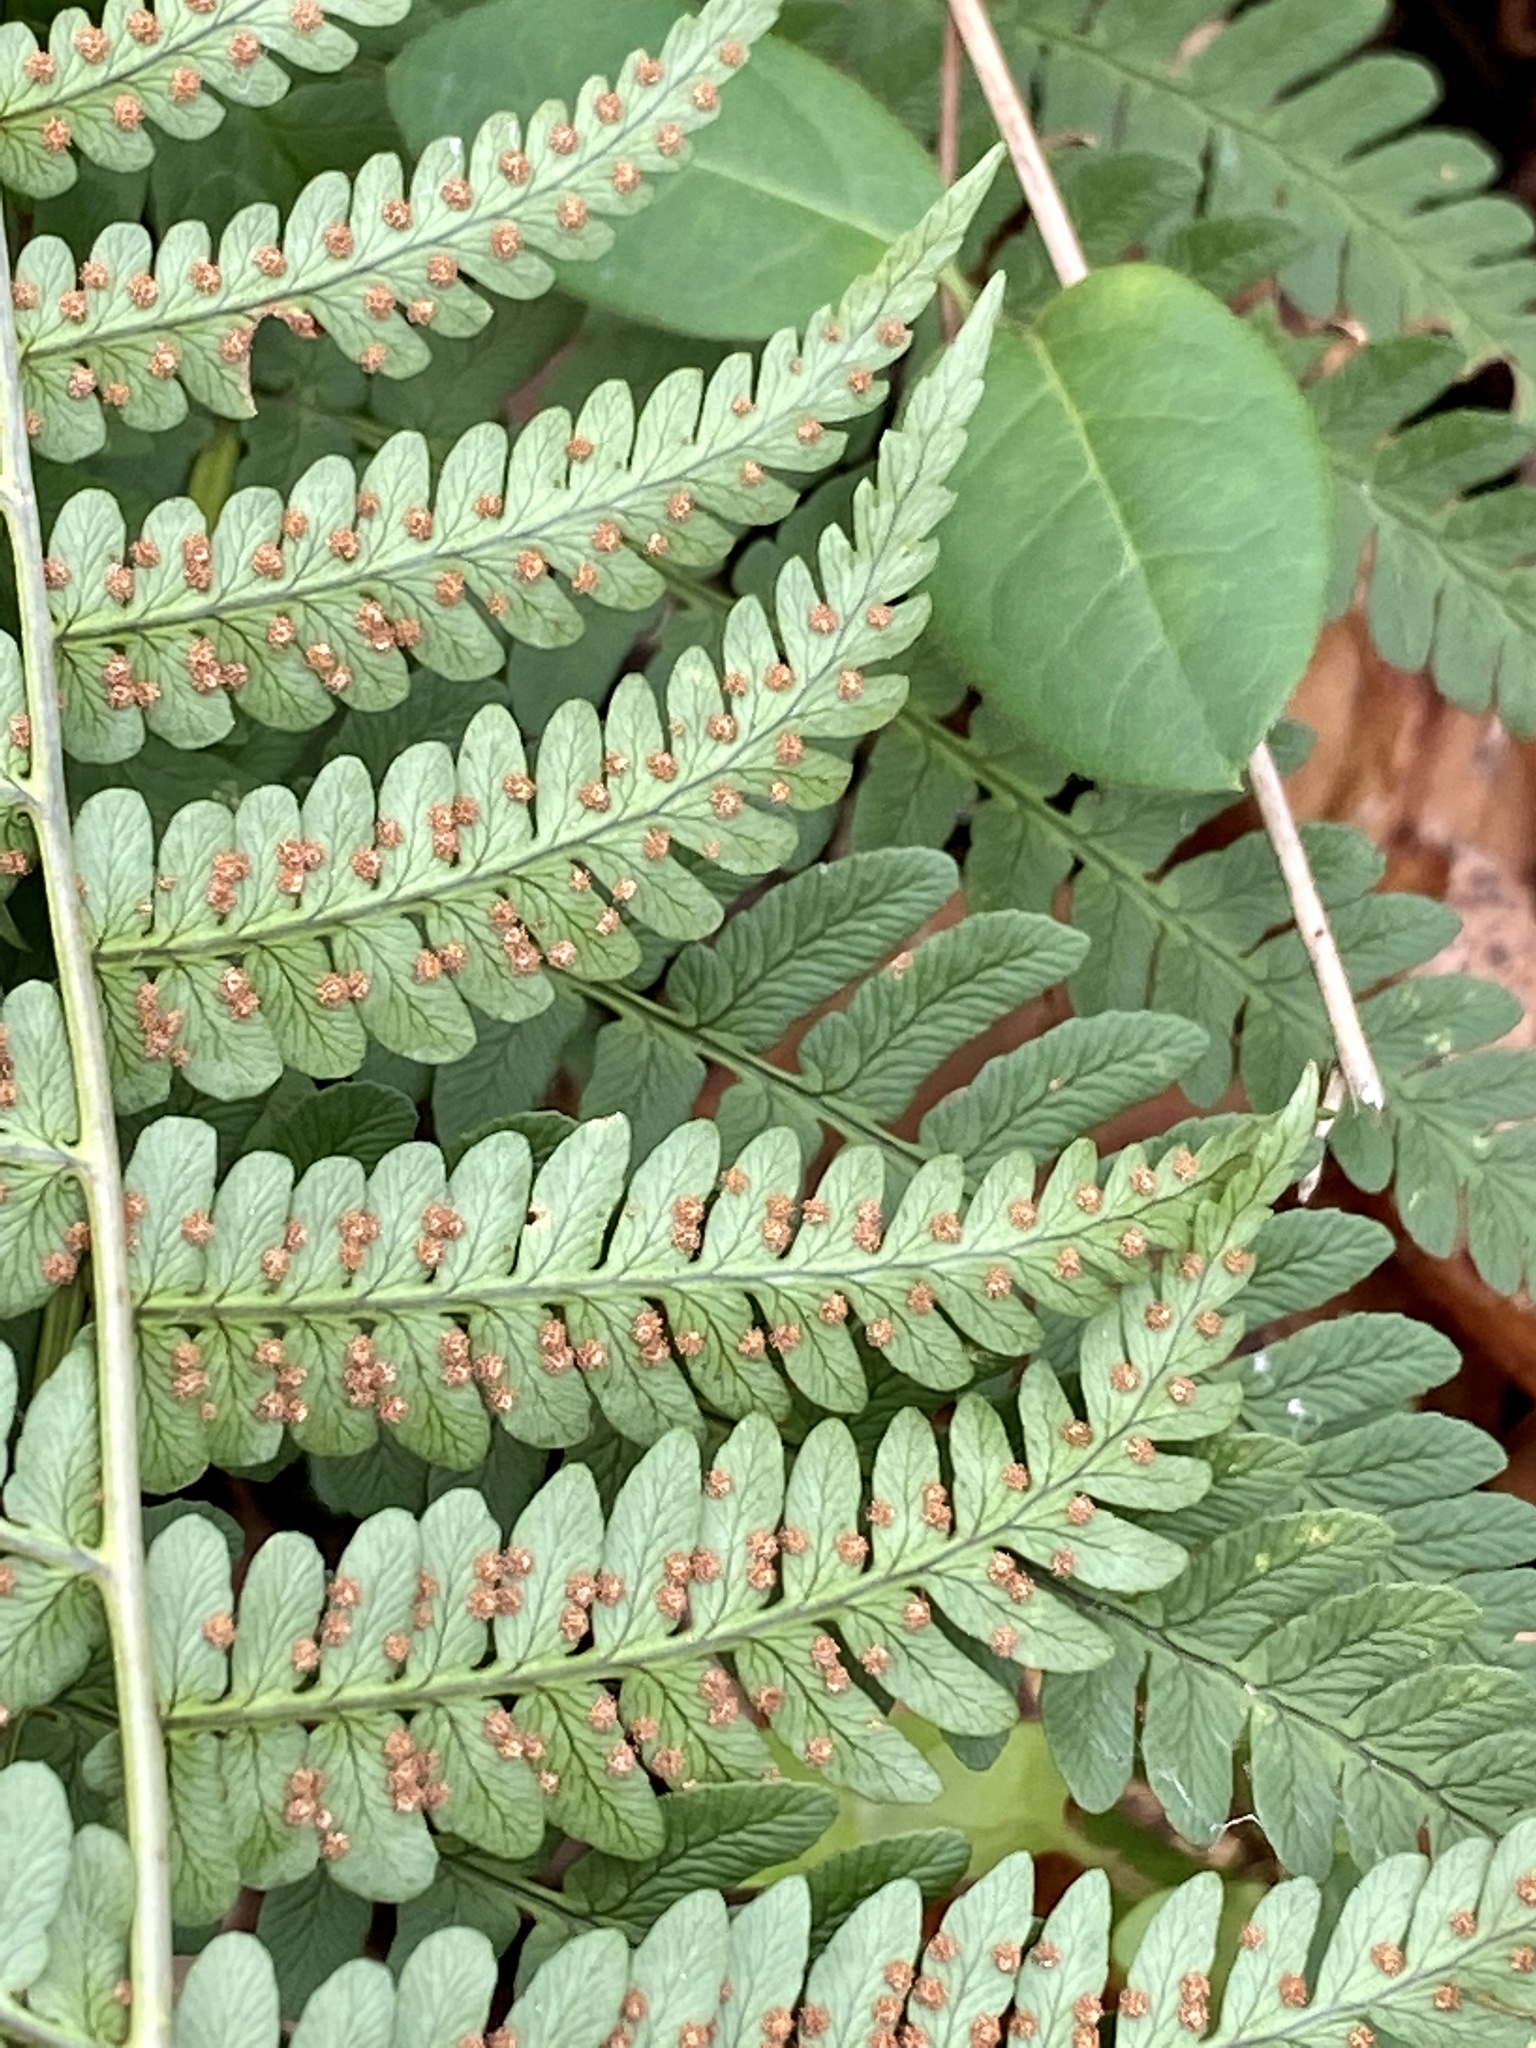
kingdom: Plantae
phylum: Tracheophyta
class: Polypodiopsida
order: Polypodiales
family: Dryopteridaceae
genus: Dryopteris
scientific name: Dryopteris marginalis
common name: Marginal wood fern
